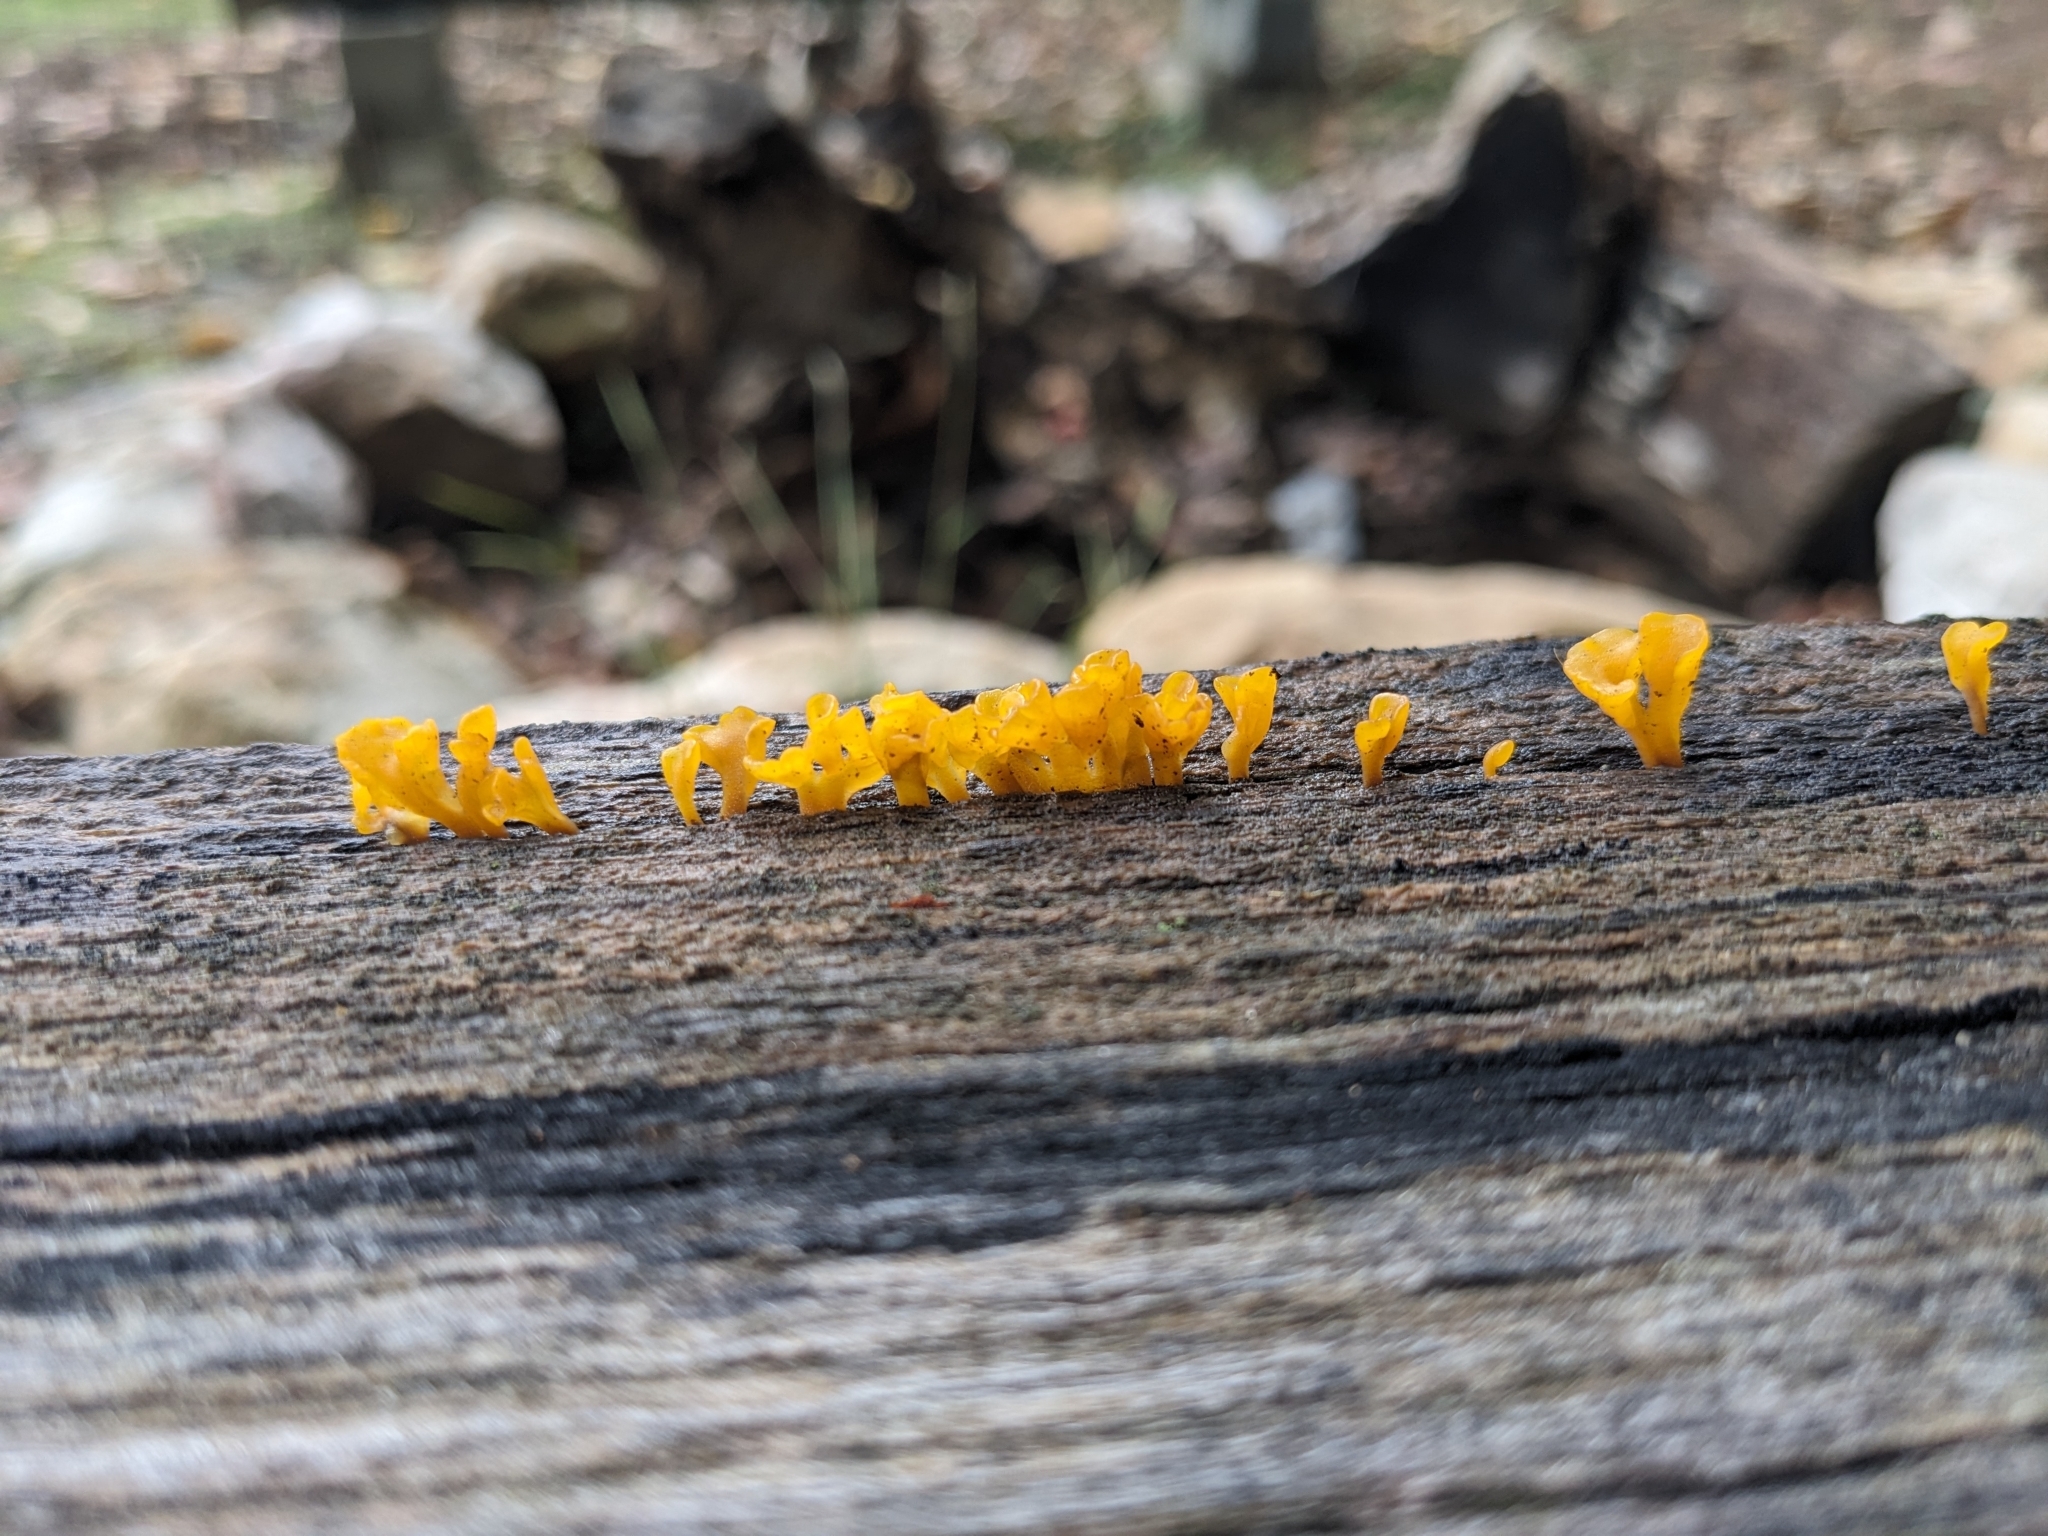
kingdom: Fungi
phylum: Basidiomycota
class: Dacrymycetes
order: Dacrymycetales
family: Dacrymycetaceae
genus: Dacrymyces
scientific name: Dacrymyces spathularius
